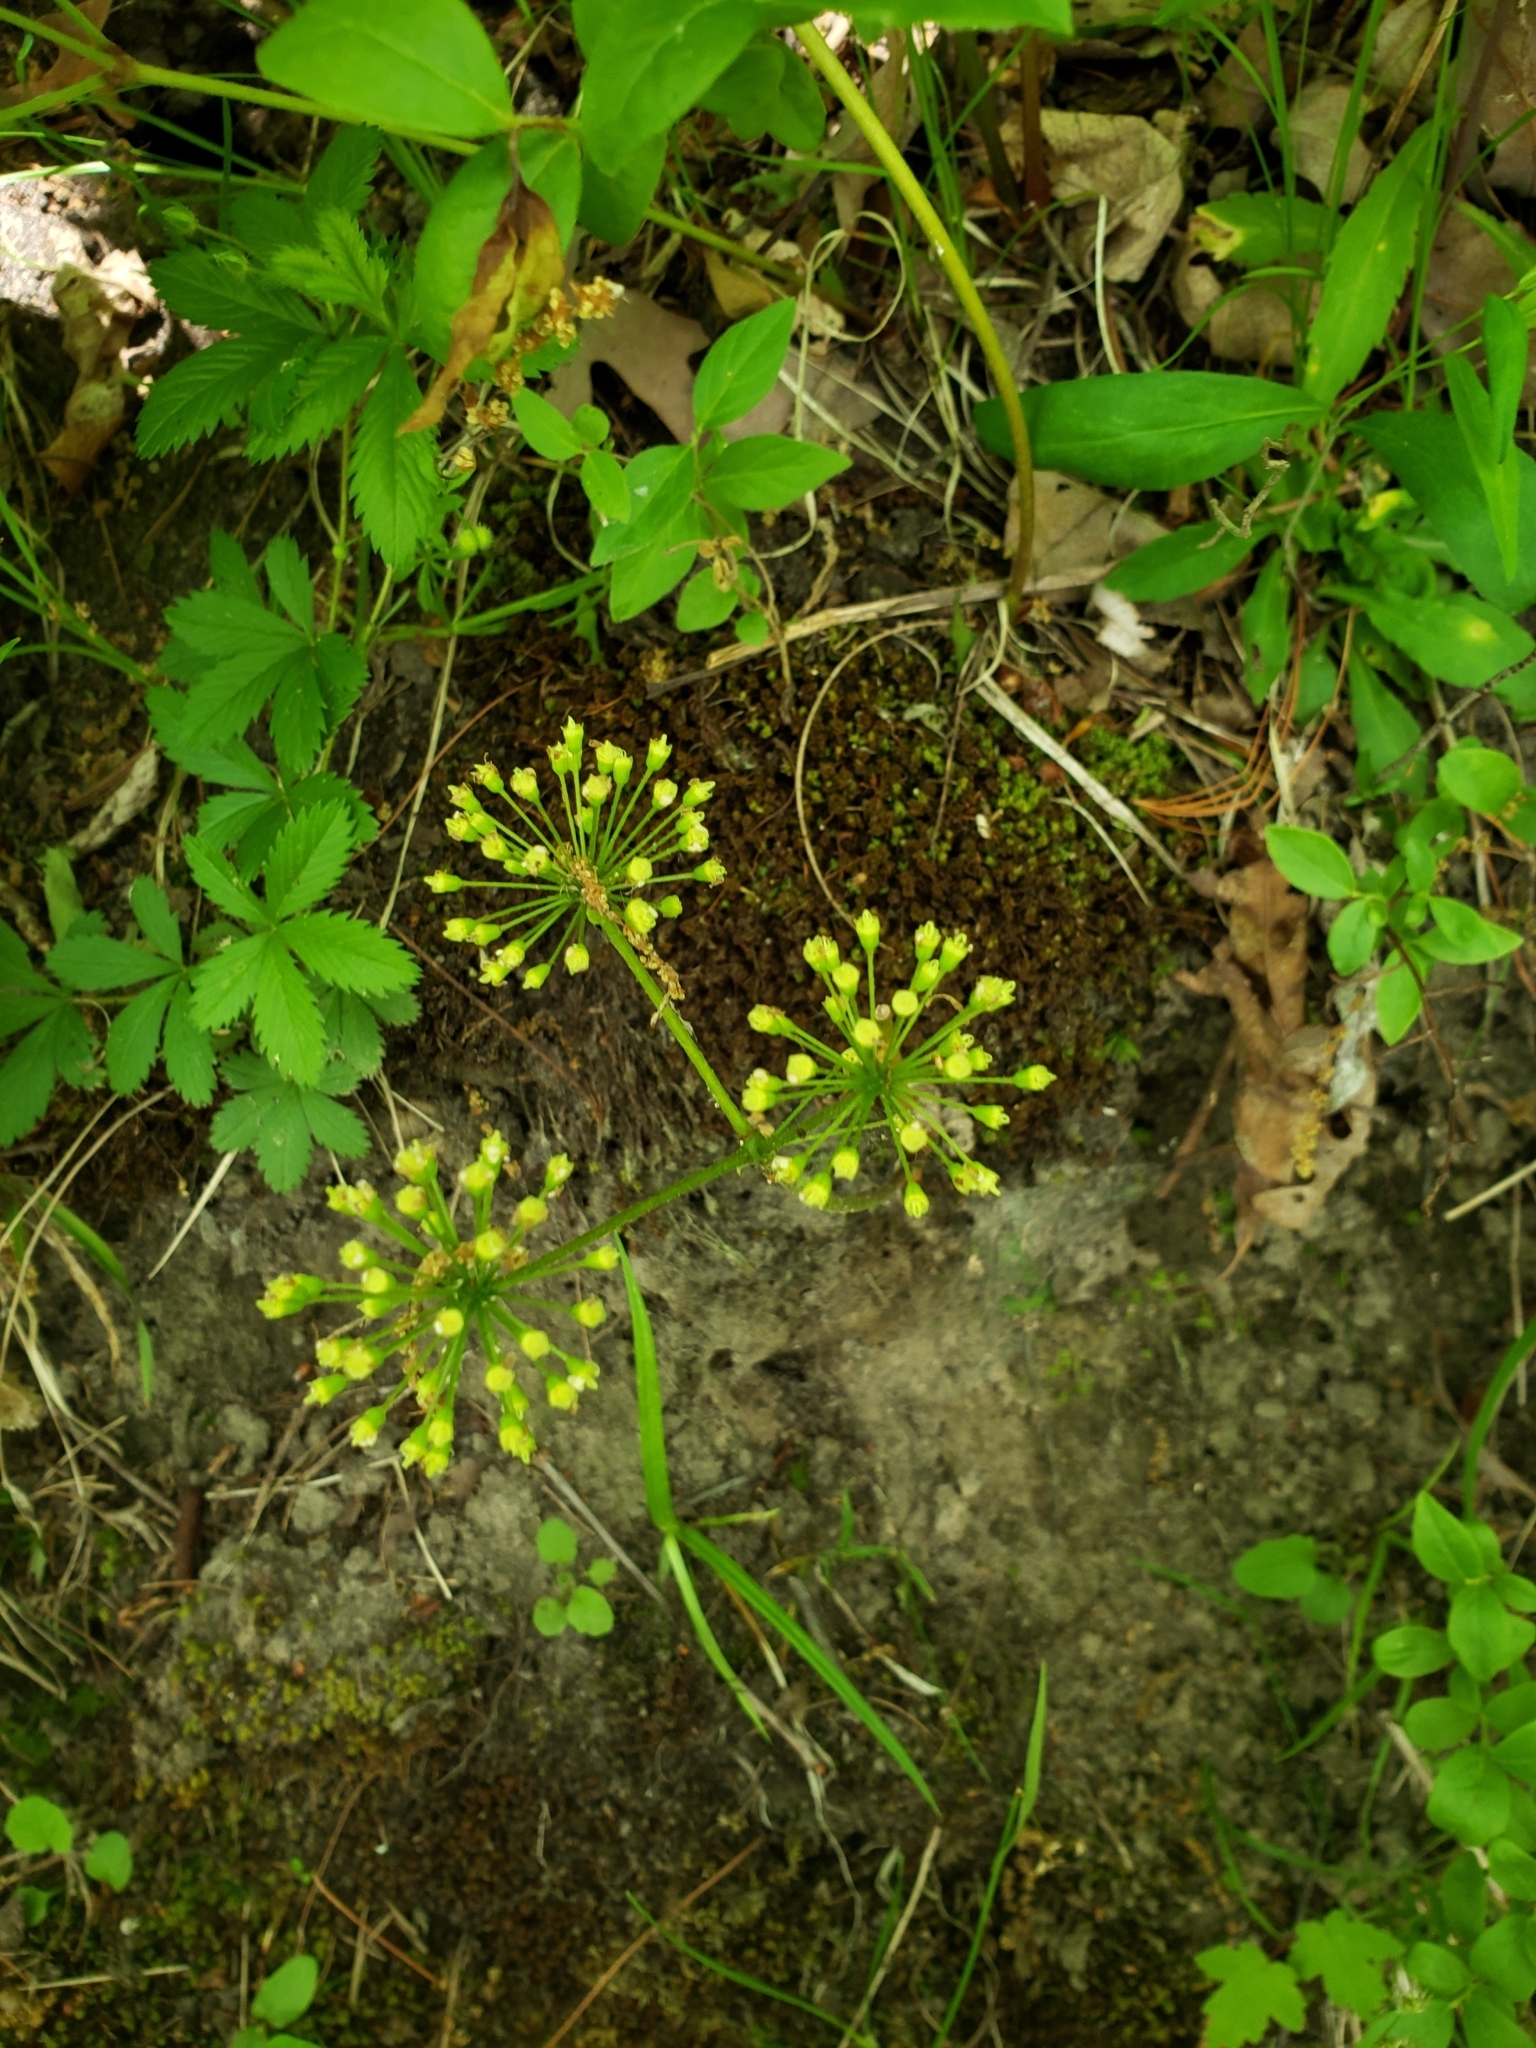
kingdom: Plantae
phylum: Tracheophyta
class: Magnoliopsida
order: Apiales
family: Araliaceae
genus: Aralia
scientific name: Aralia nudicaulis
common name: Wild sarsaparilla
